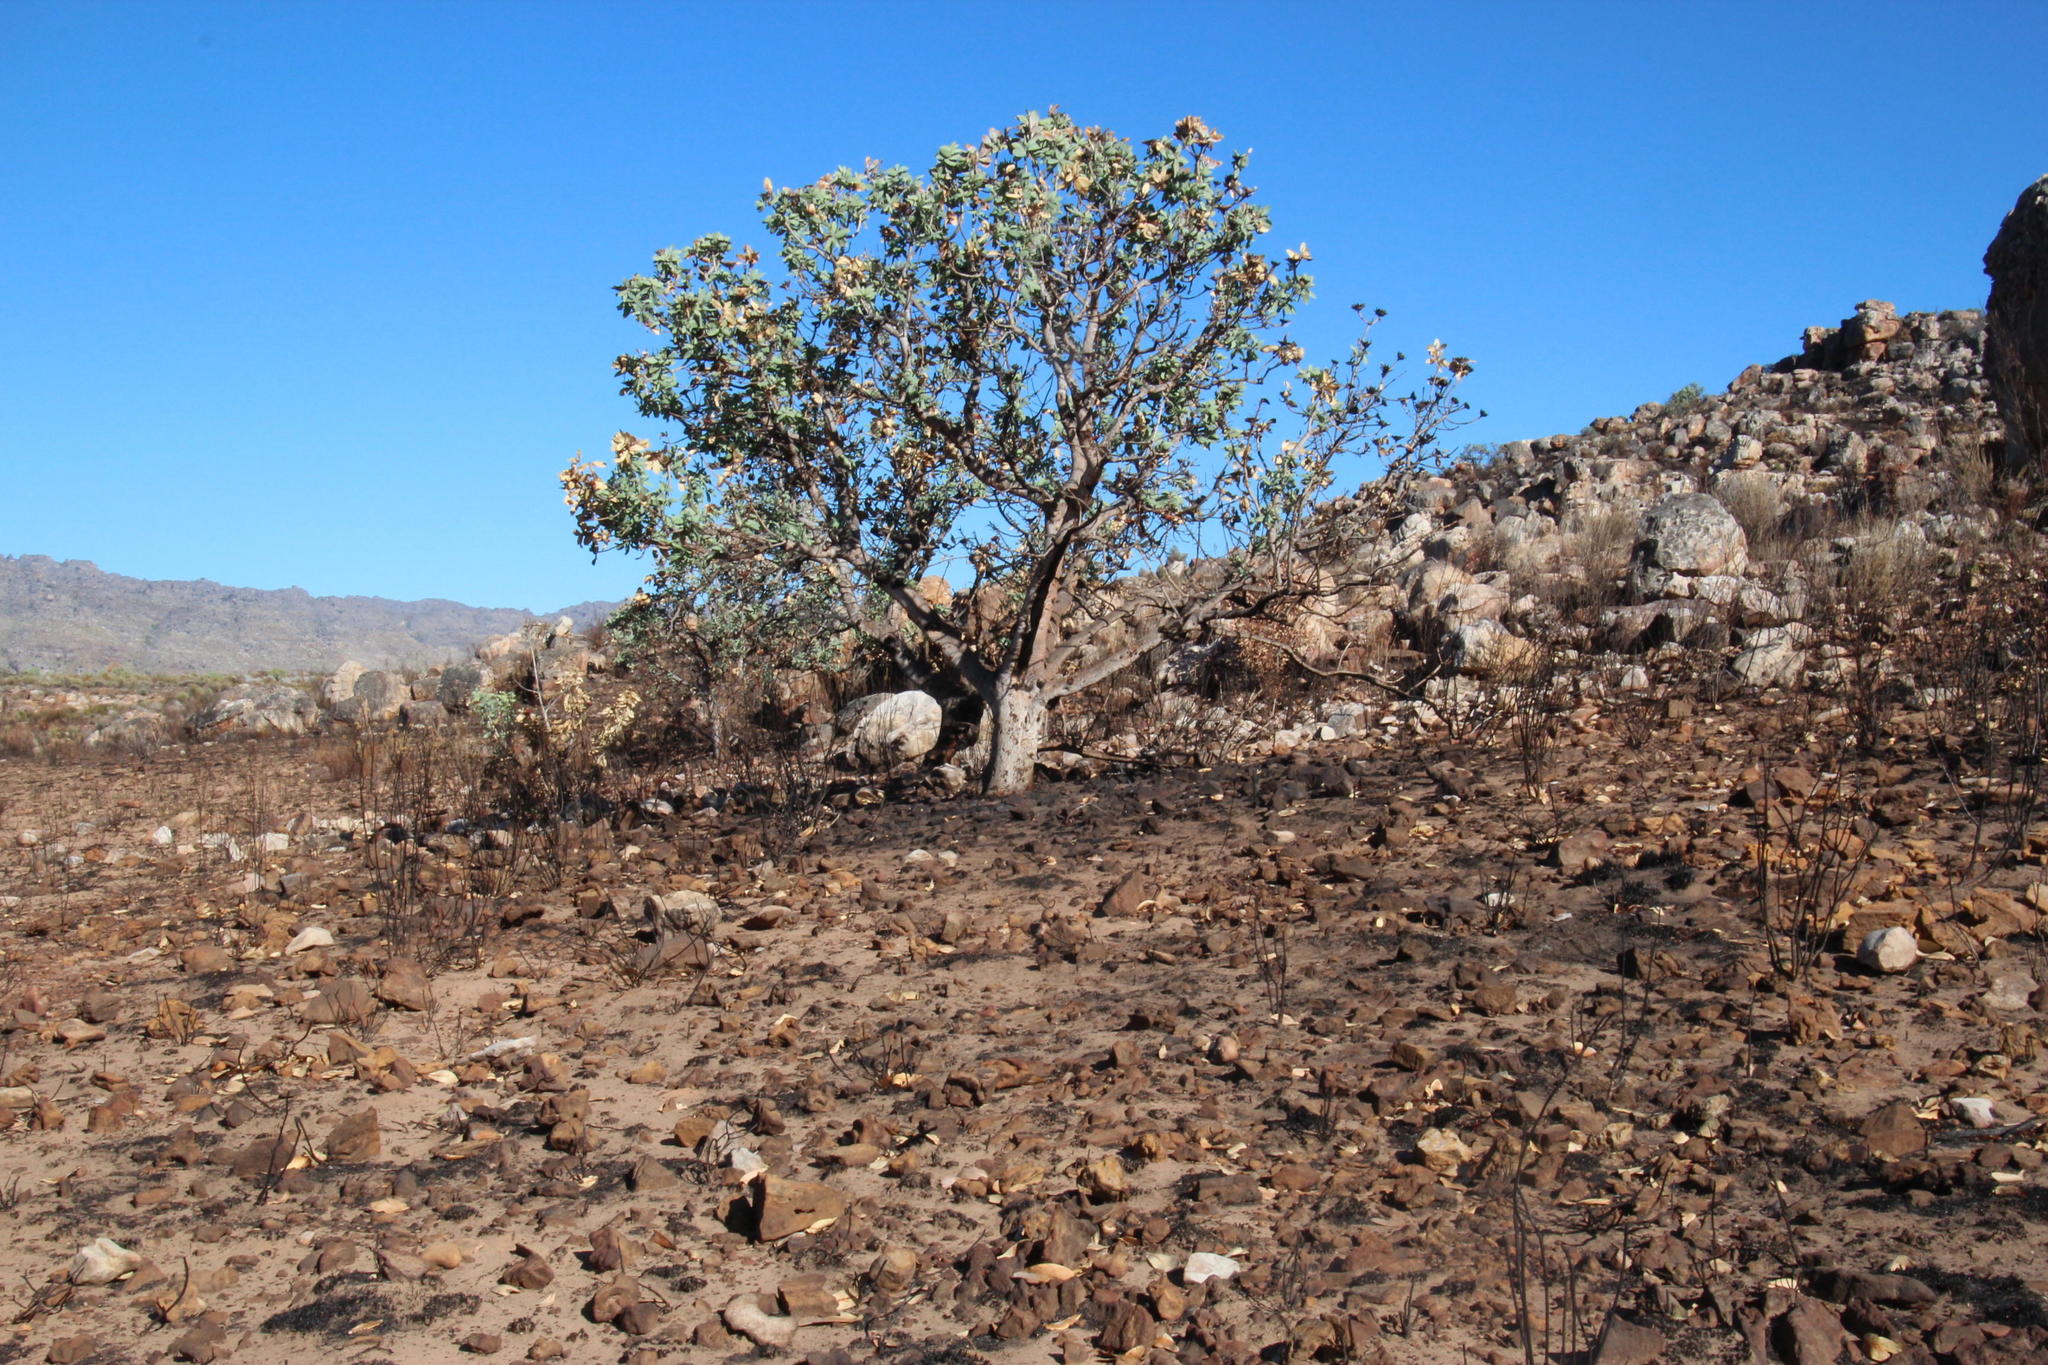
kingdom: Plantae
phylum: Tracheophyta
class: Magnoliopsida
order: Proteales
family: Proteaceae
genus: Protea
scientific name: Protea nitida
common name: Tree protea
